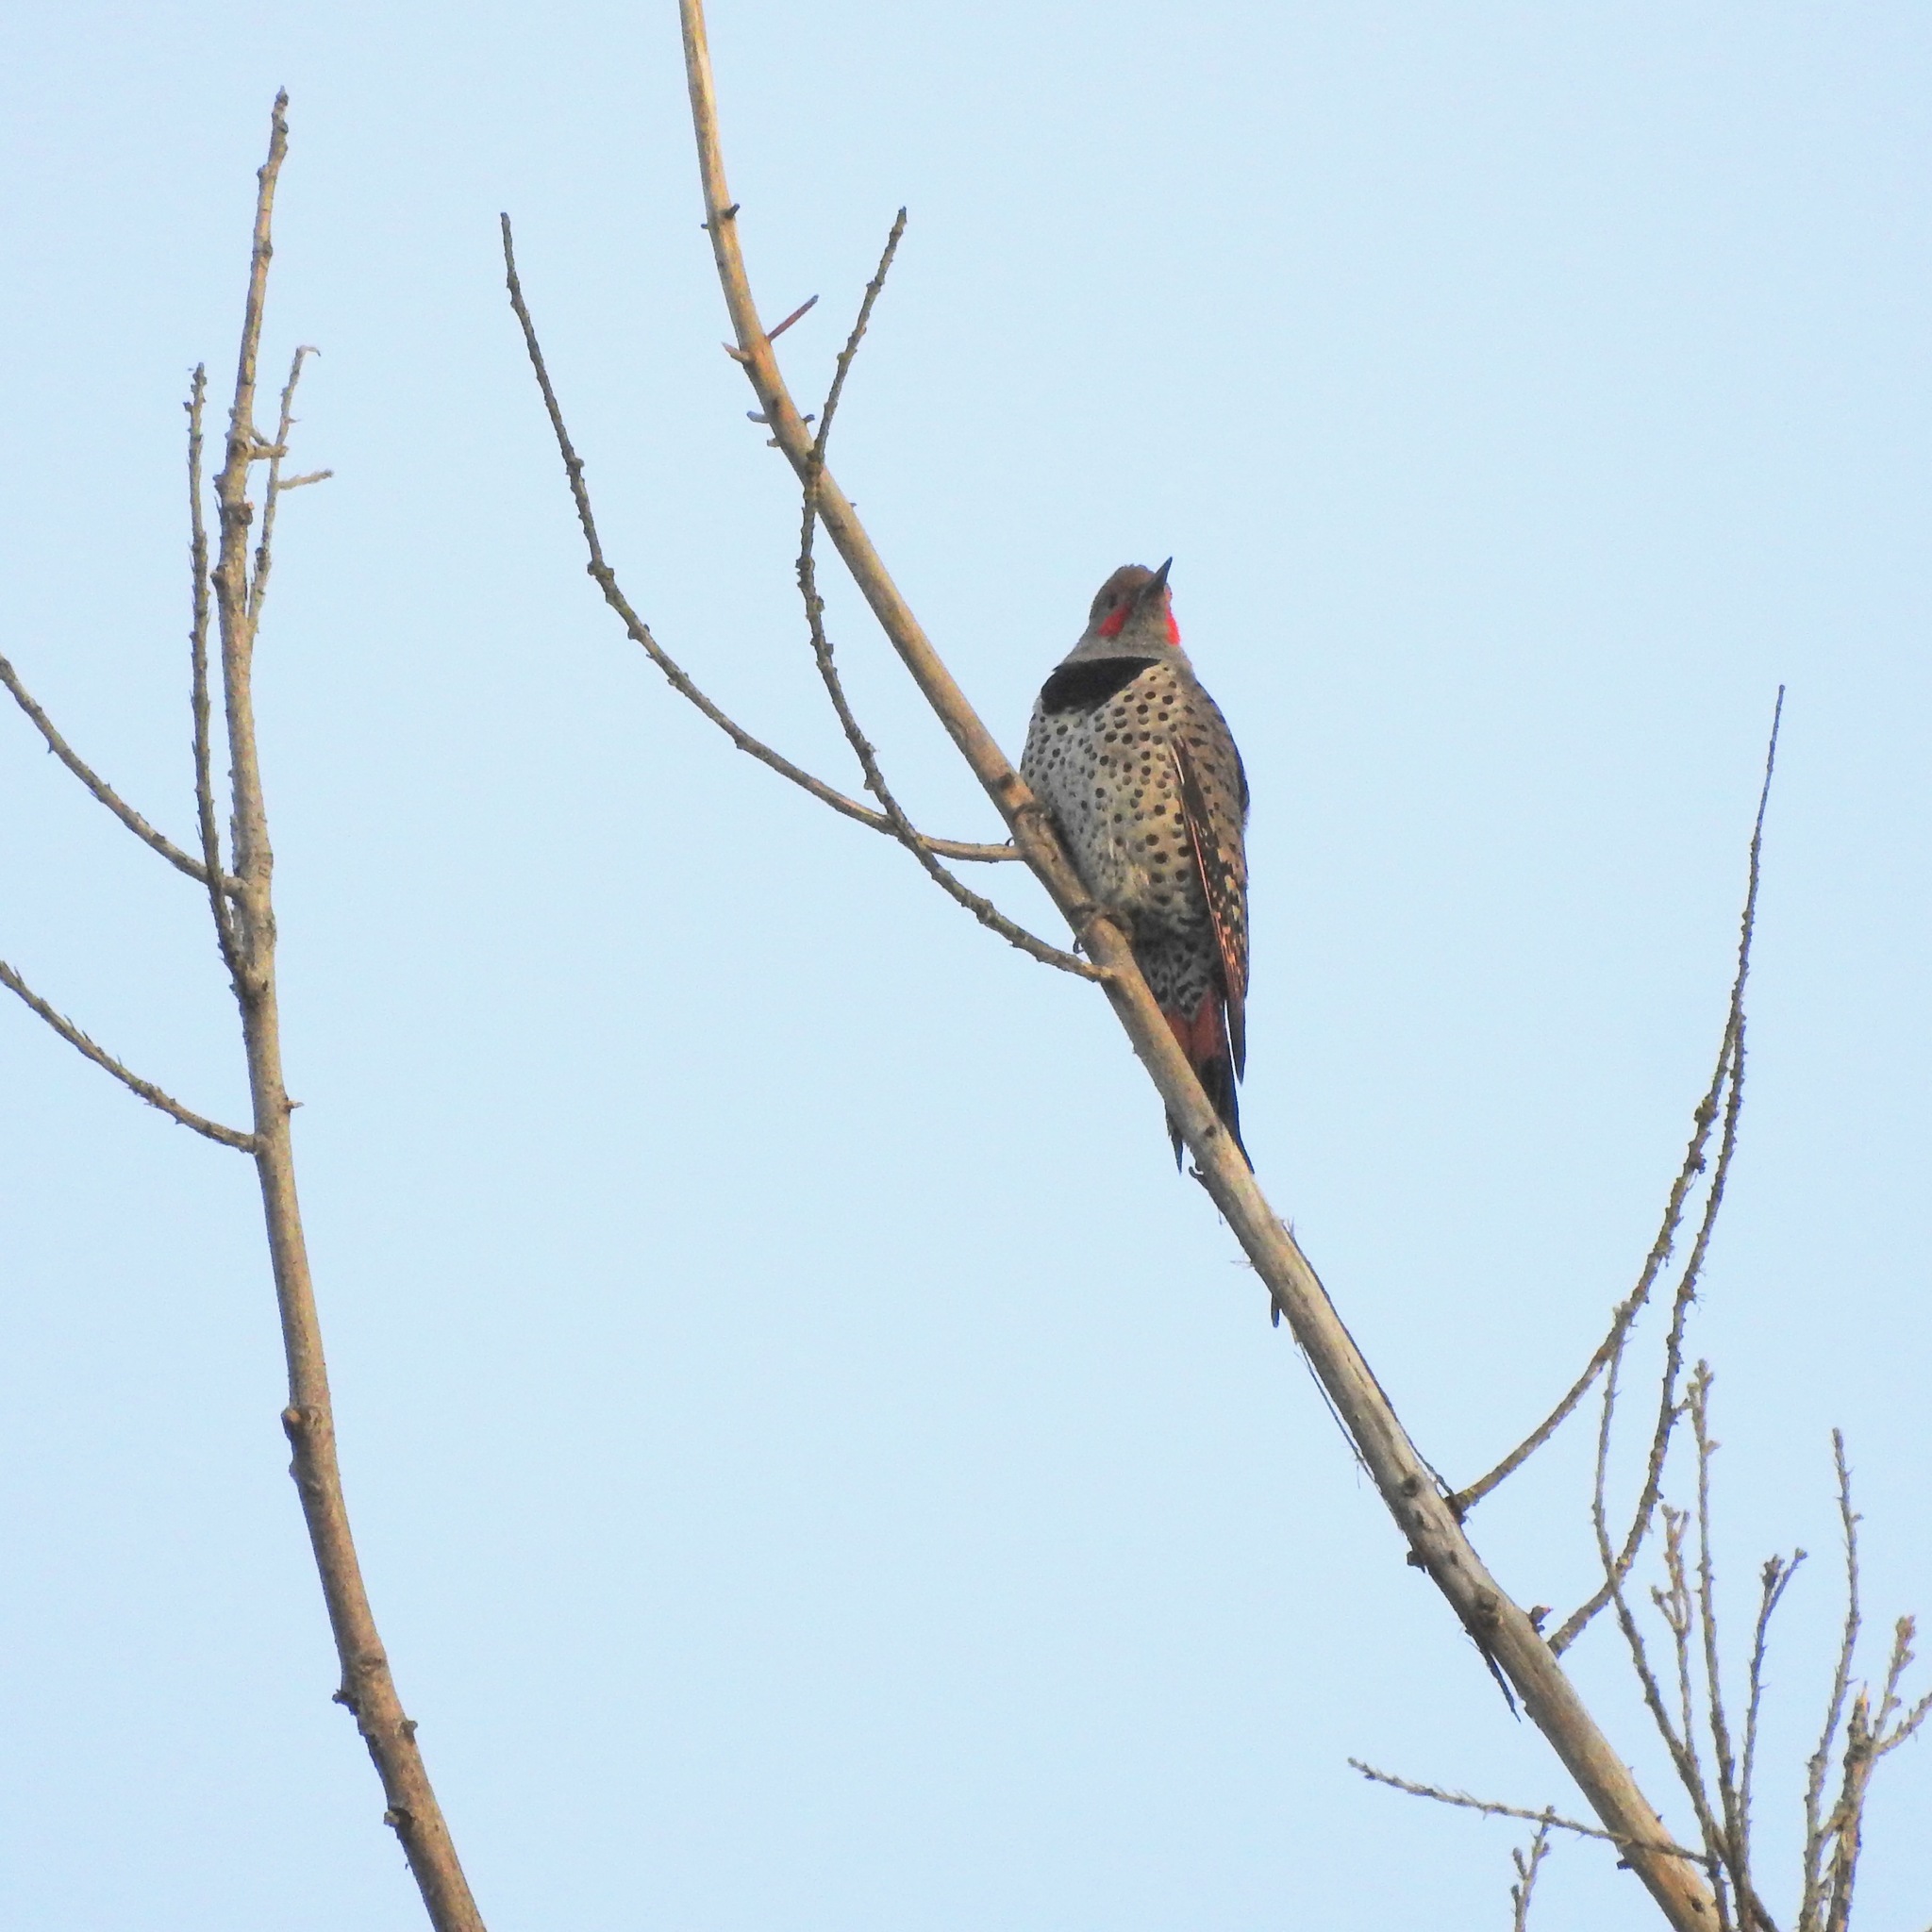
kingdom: Animalia
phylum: Chordata
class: Aves
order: Piciformes
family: Picidae
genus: Colaptes
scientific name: Colaptes auratus
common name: Northern flicker
